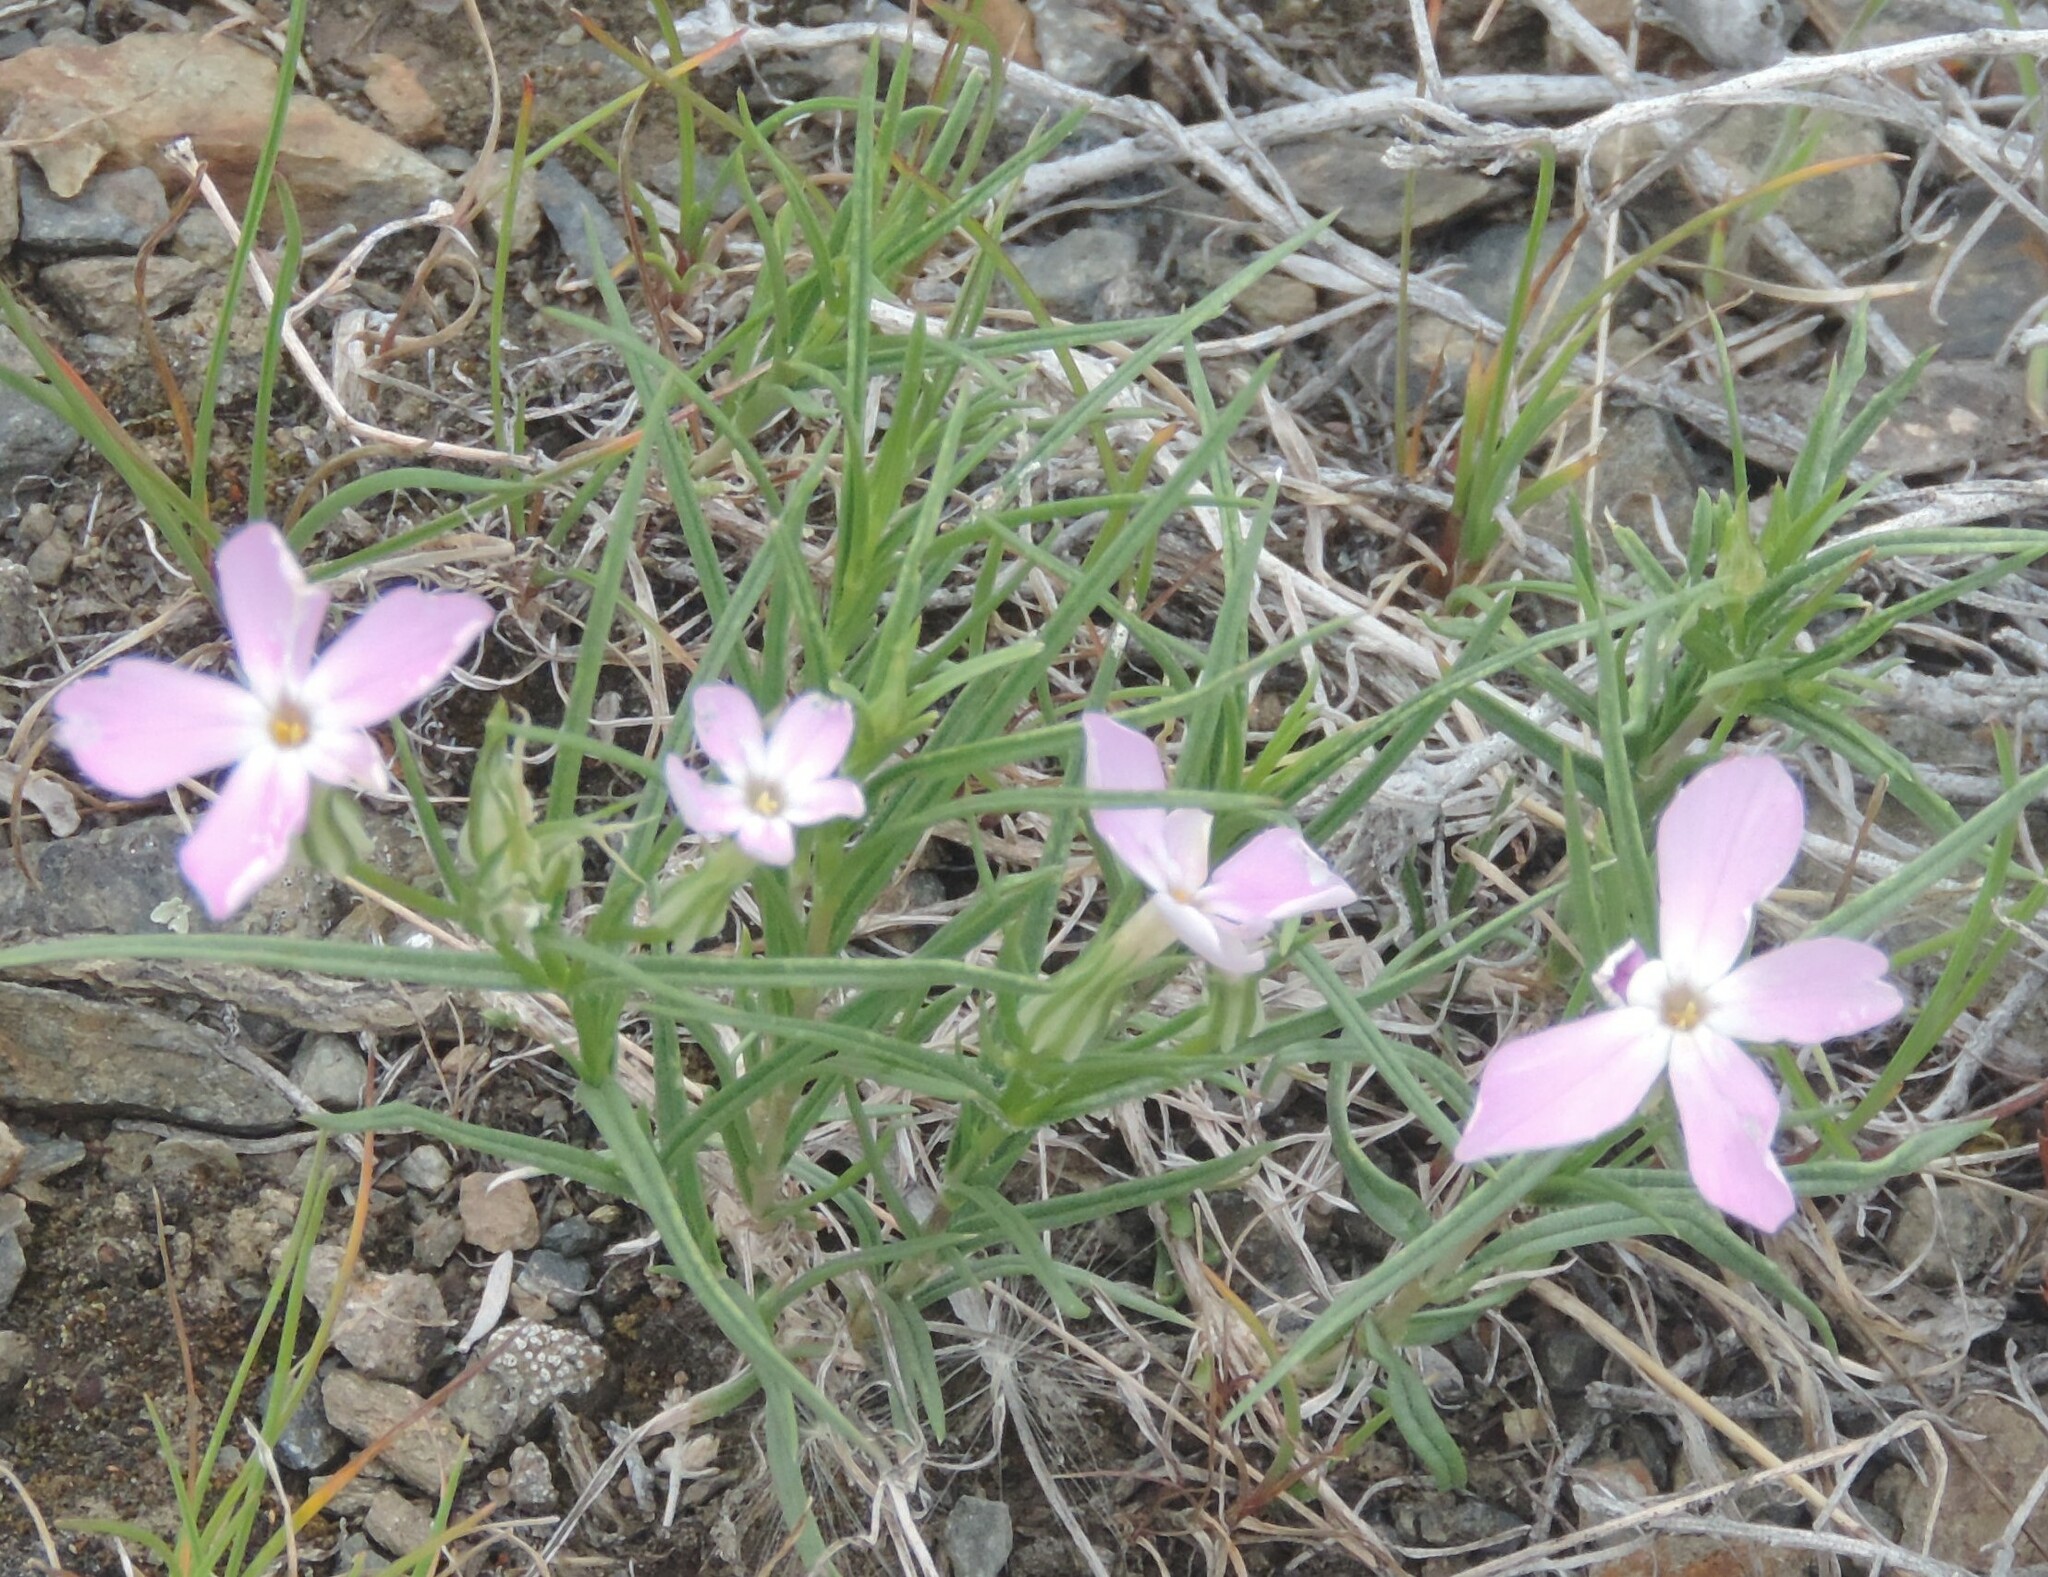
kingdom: Plantae
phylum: Tracheophyta
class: Magnoliopsida
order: Ericales
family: Polemoniaceae
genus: Phlox
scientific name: Phlox longifolia
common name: Longleaf phlox
